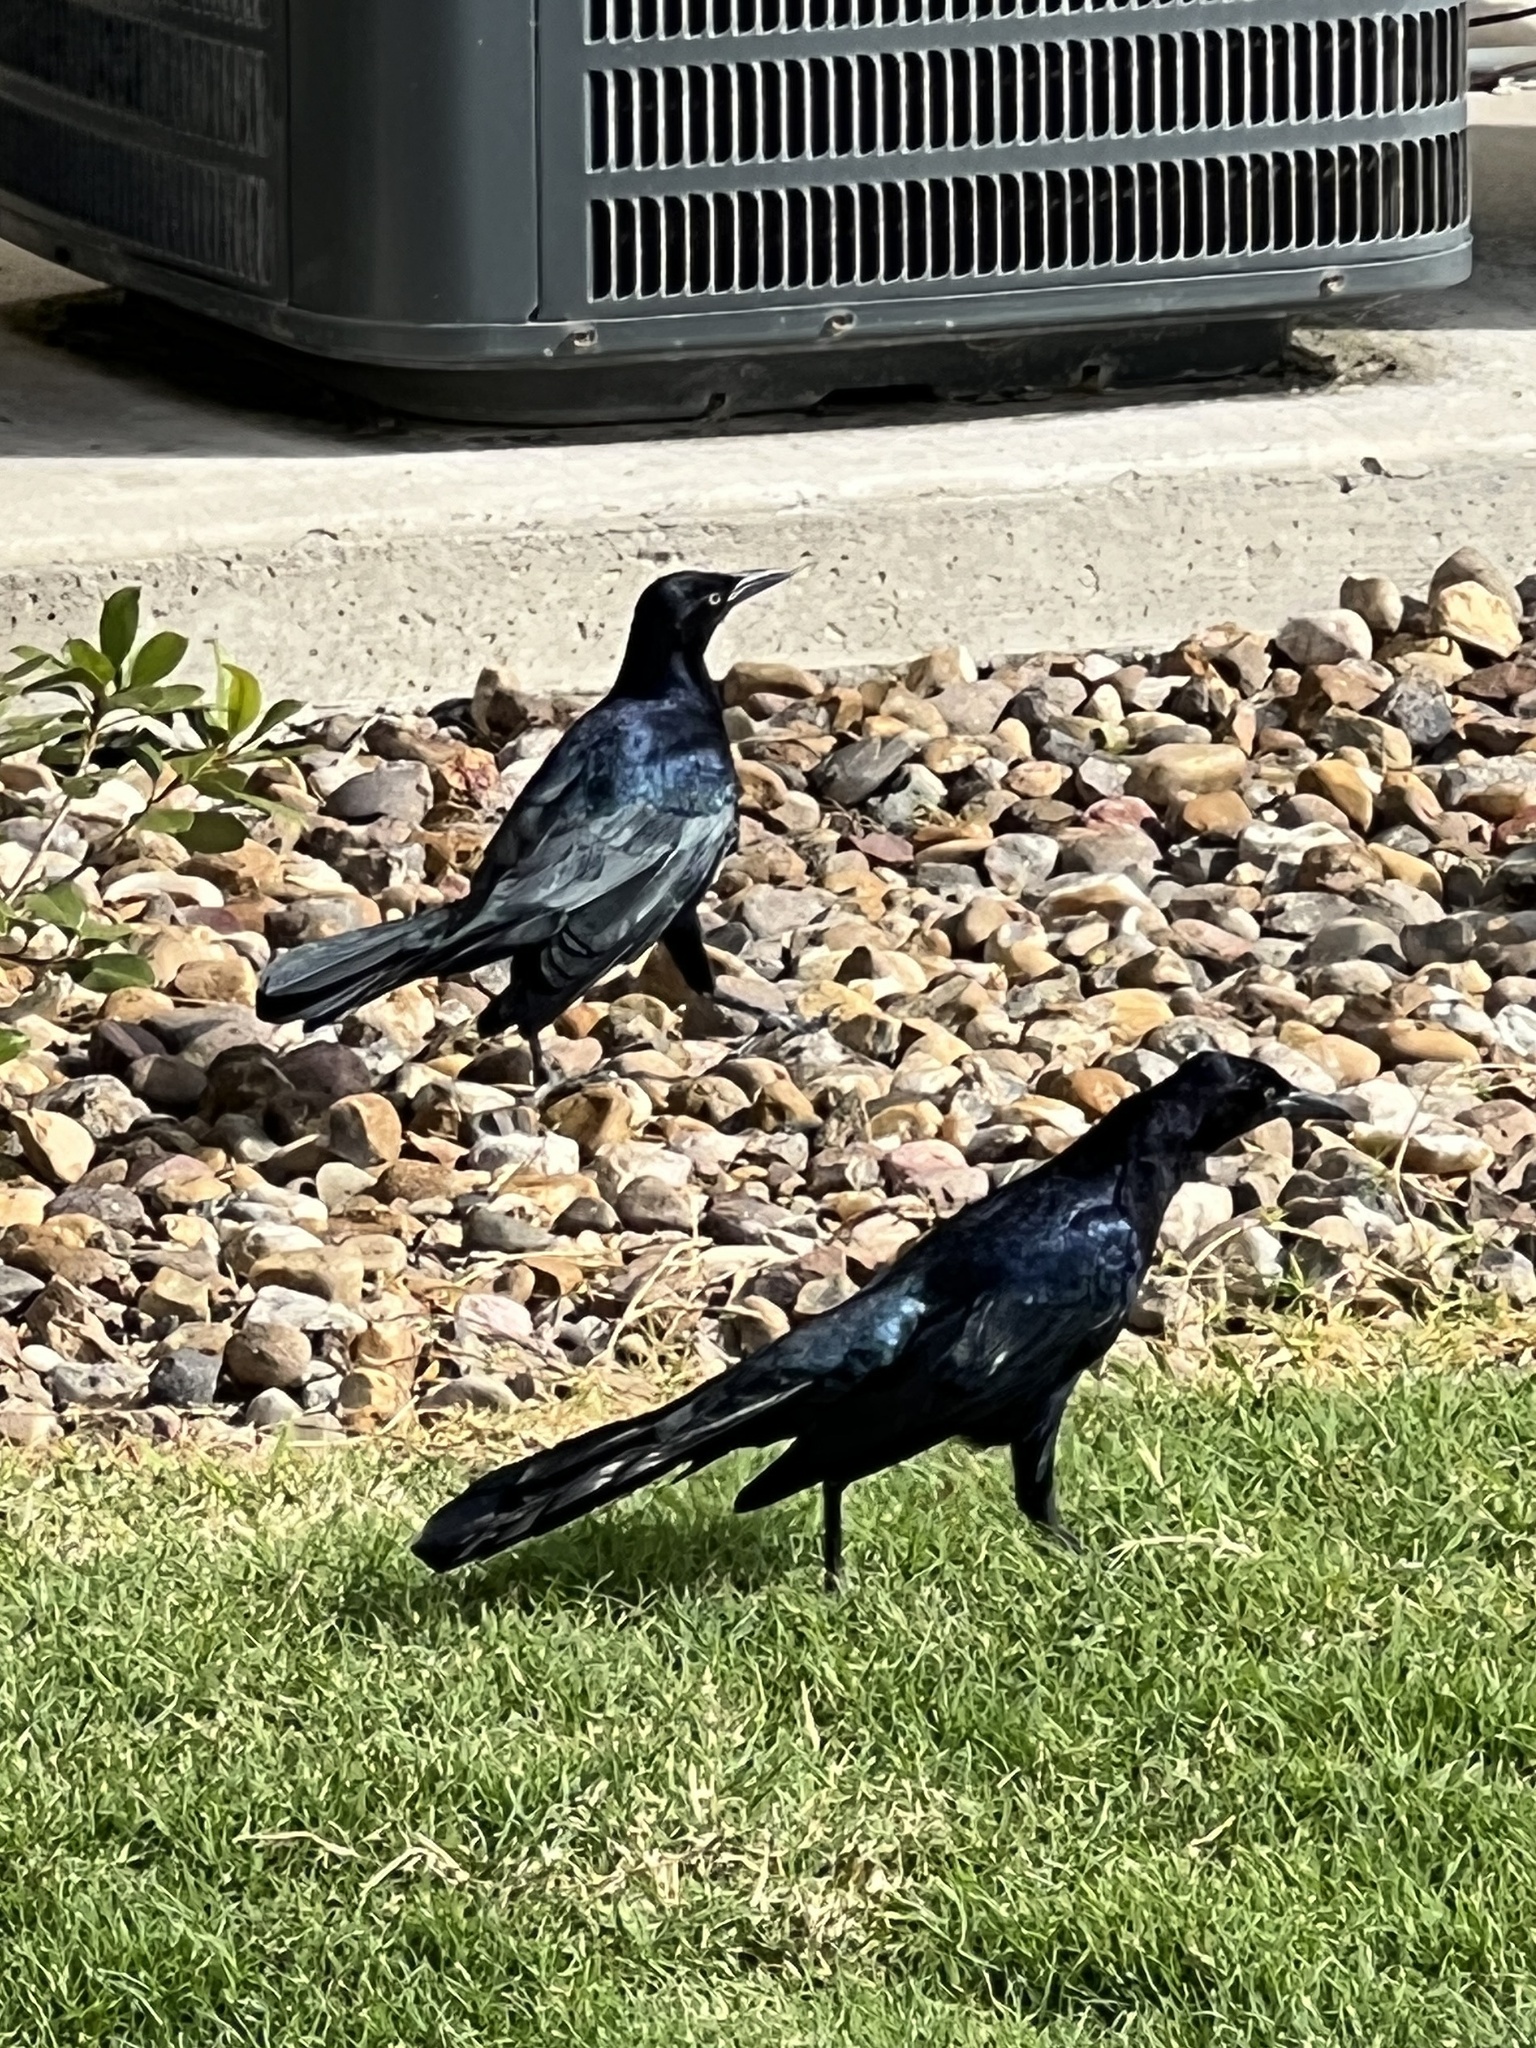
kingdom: Animalia
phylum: Chordata
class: Aves
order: Passeriformes
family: Icteridae
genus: Quiscalus
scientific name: Quiscalus mexicanus
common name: Great-tailed grackle
